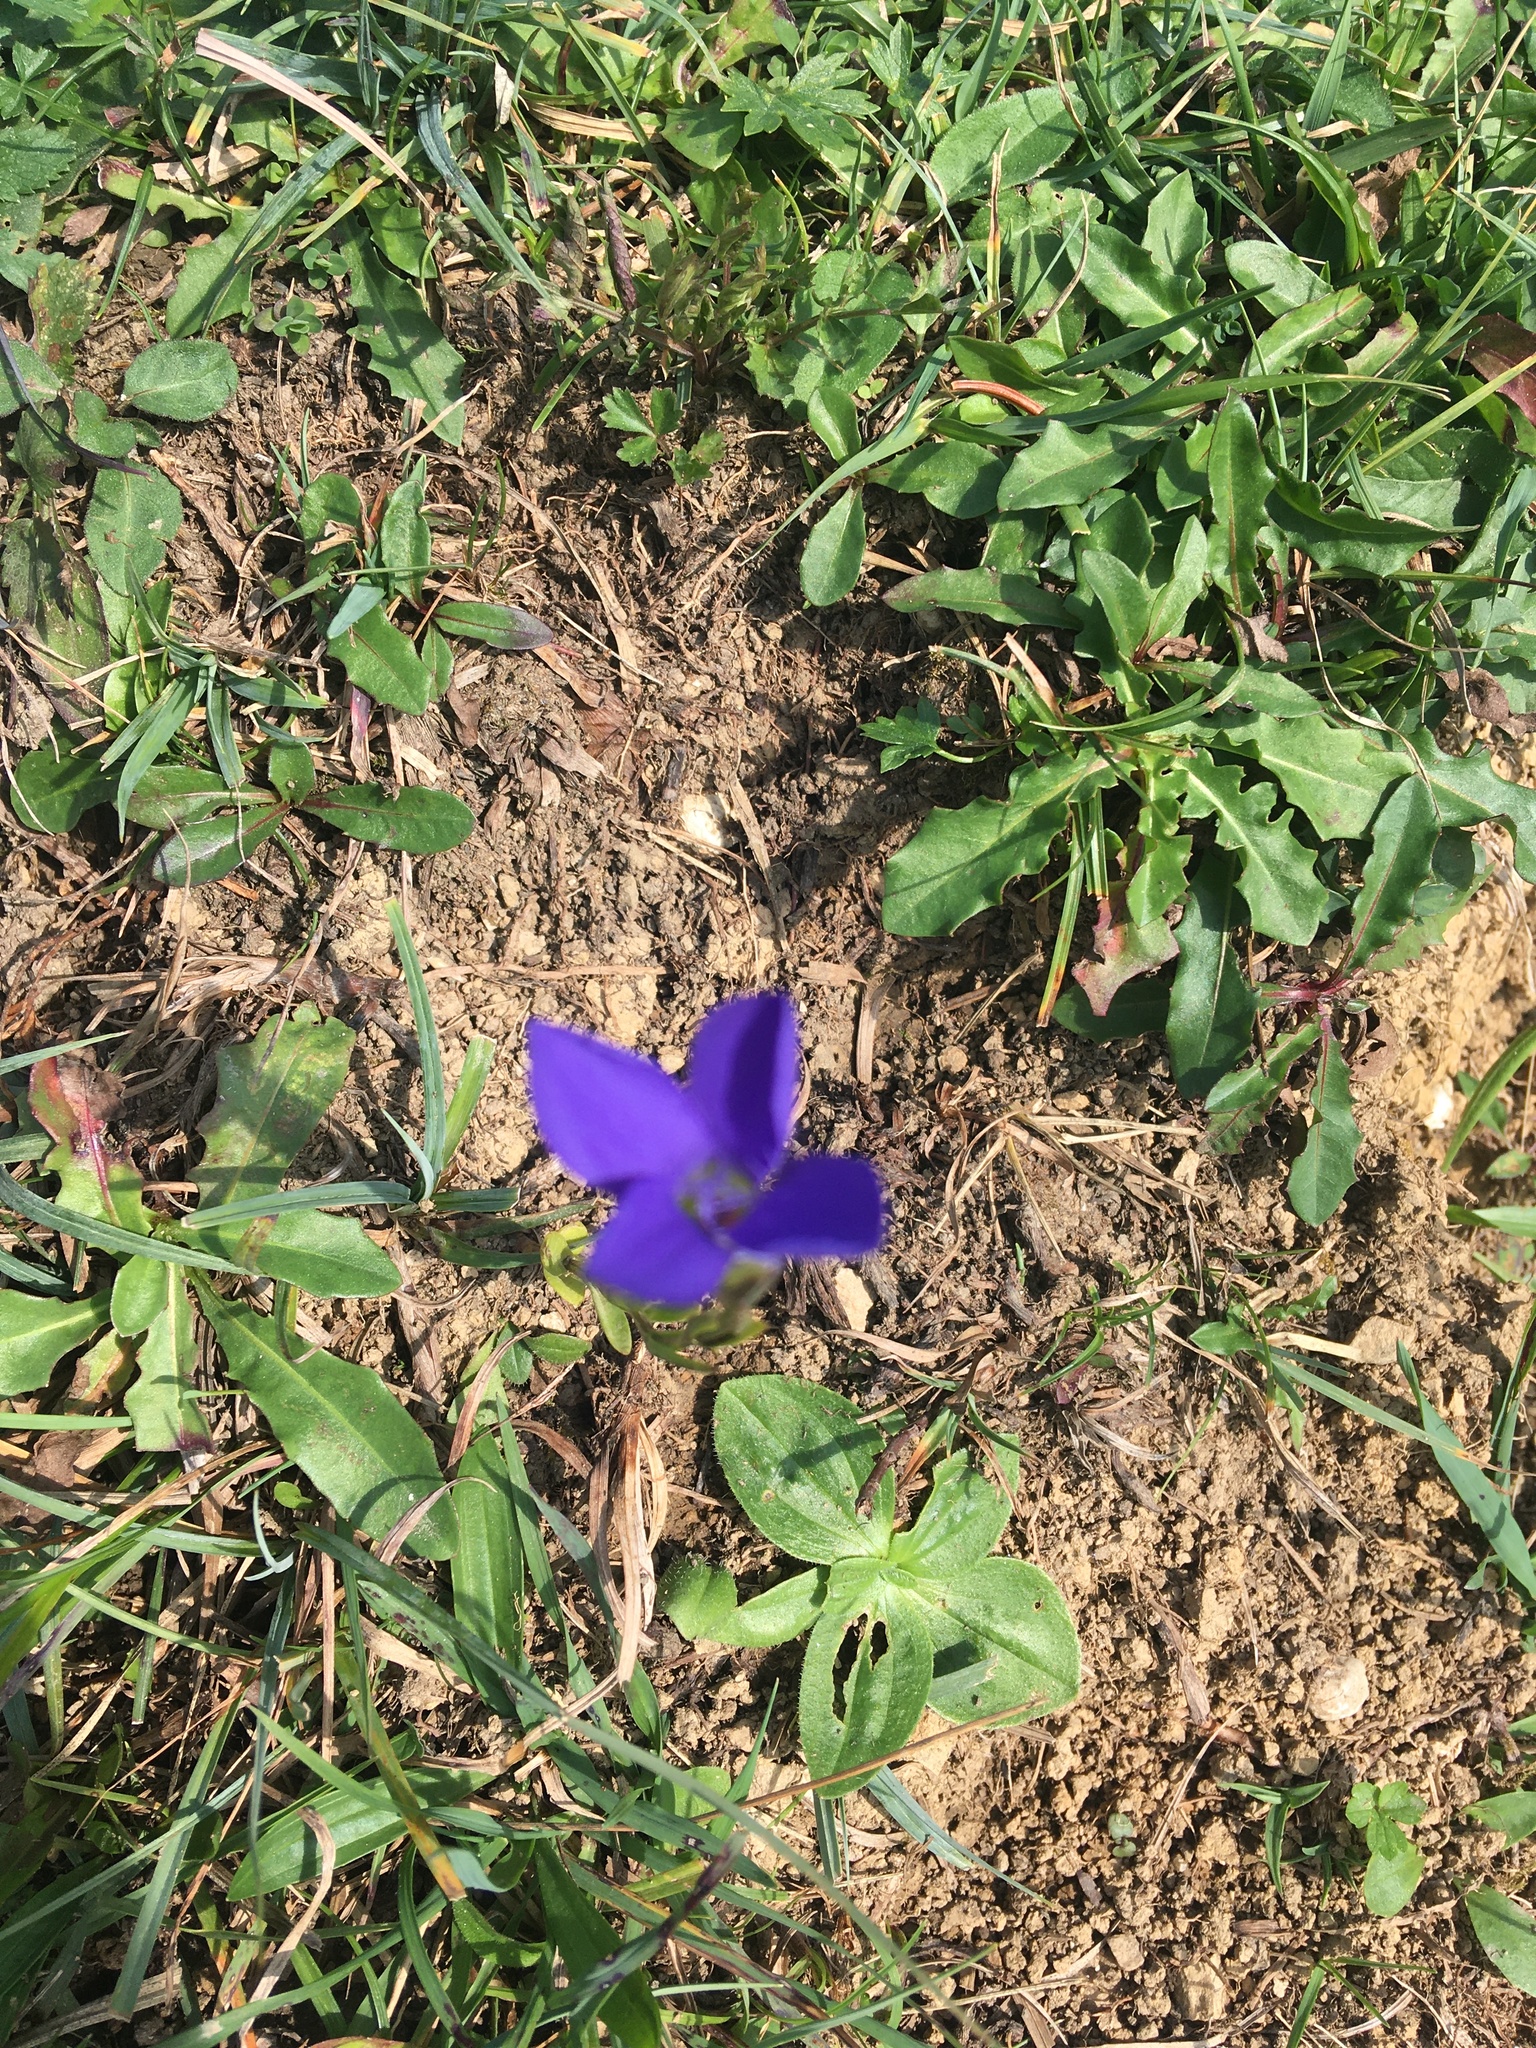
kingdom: Plantae
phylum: Tracheophyta
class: Magnoliopsida
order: Gentianales
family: Gentianaceae
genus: Gentianopsis
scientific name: Gentianopsis ciliata
